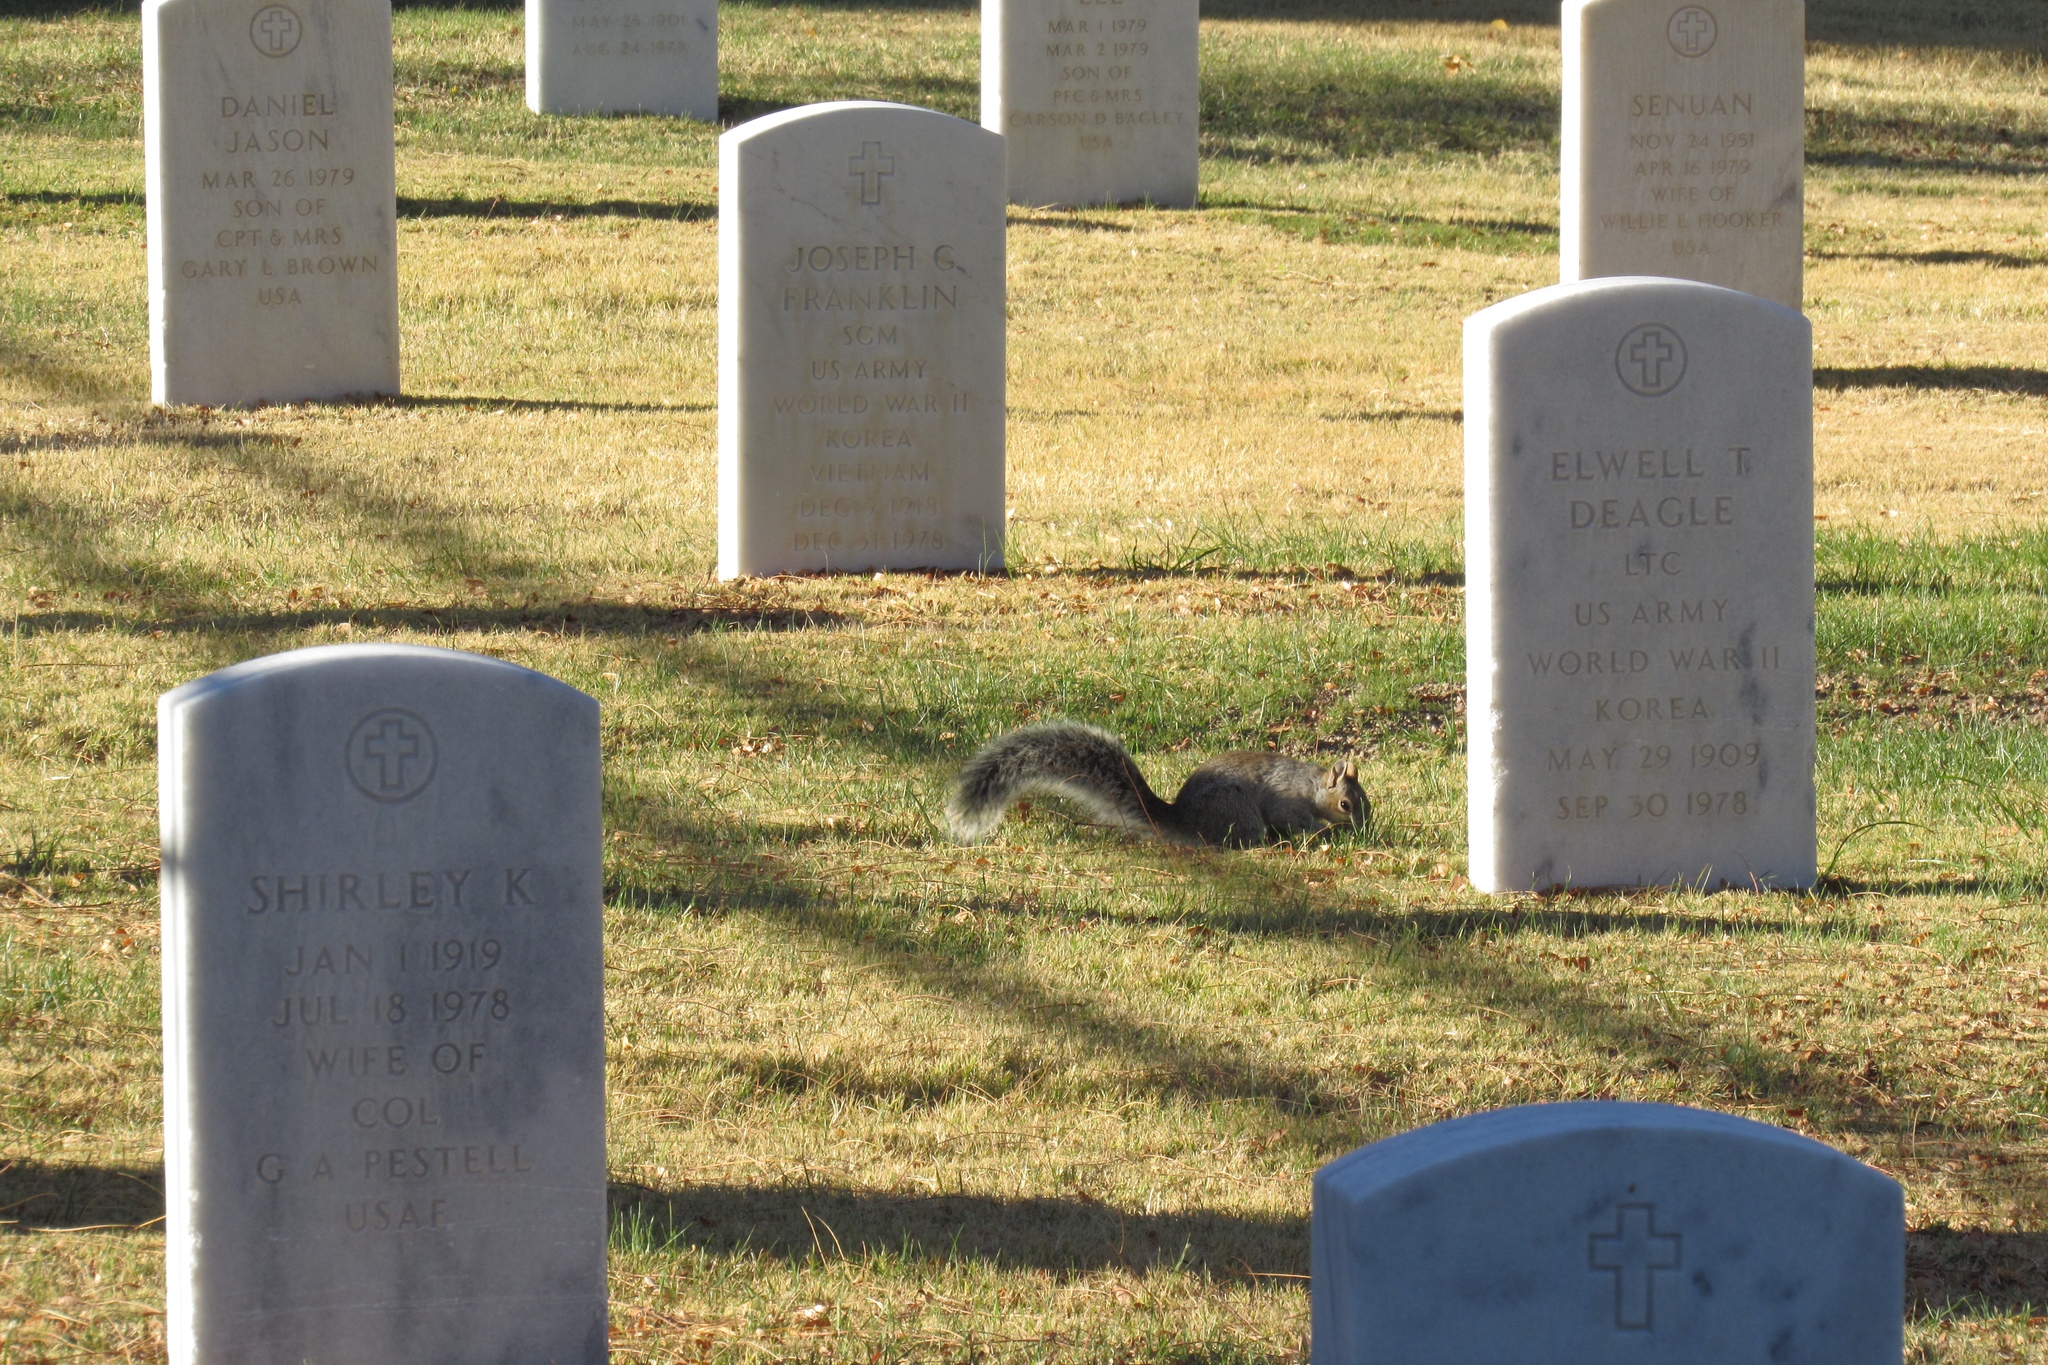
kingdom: Animalia
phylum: Chordata
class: Mammalia
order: Rodentia
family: Sciuridae
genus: Sciurus
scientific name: Sciurus arizonensis
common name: Arizona gray squirrel
